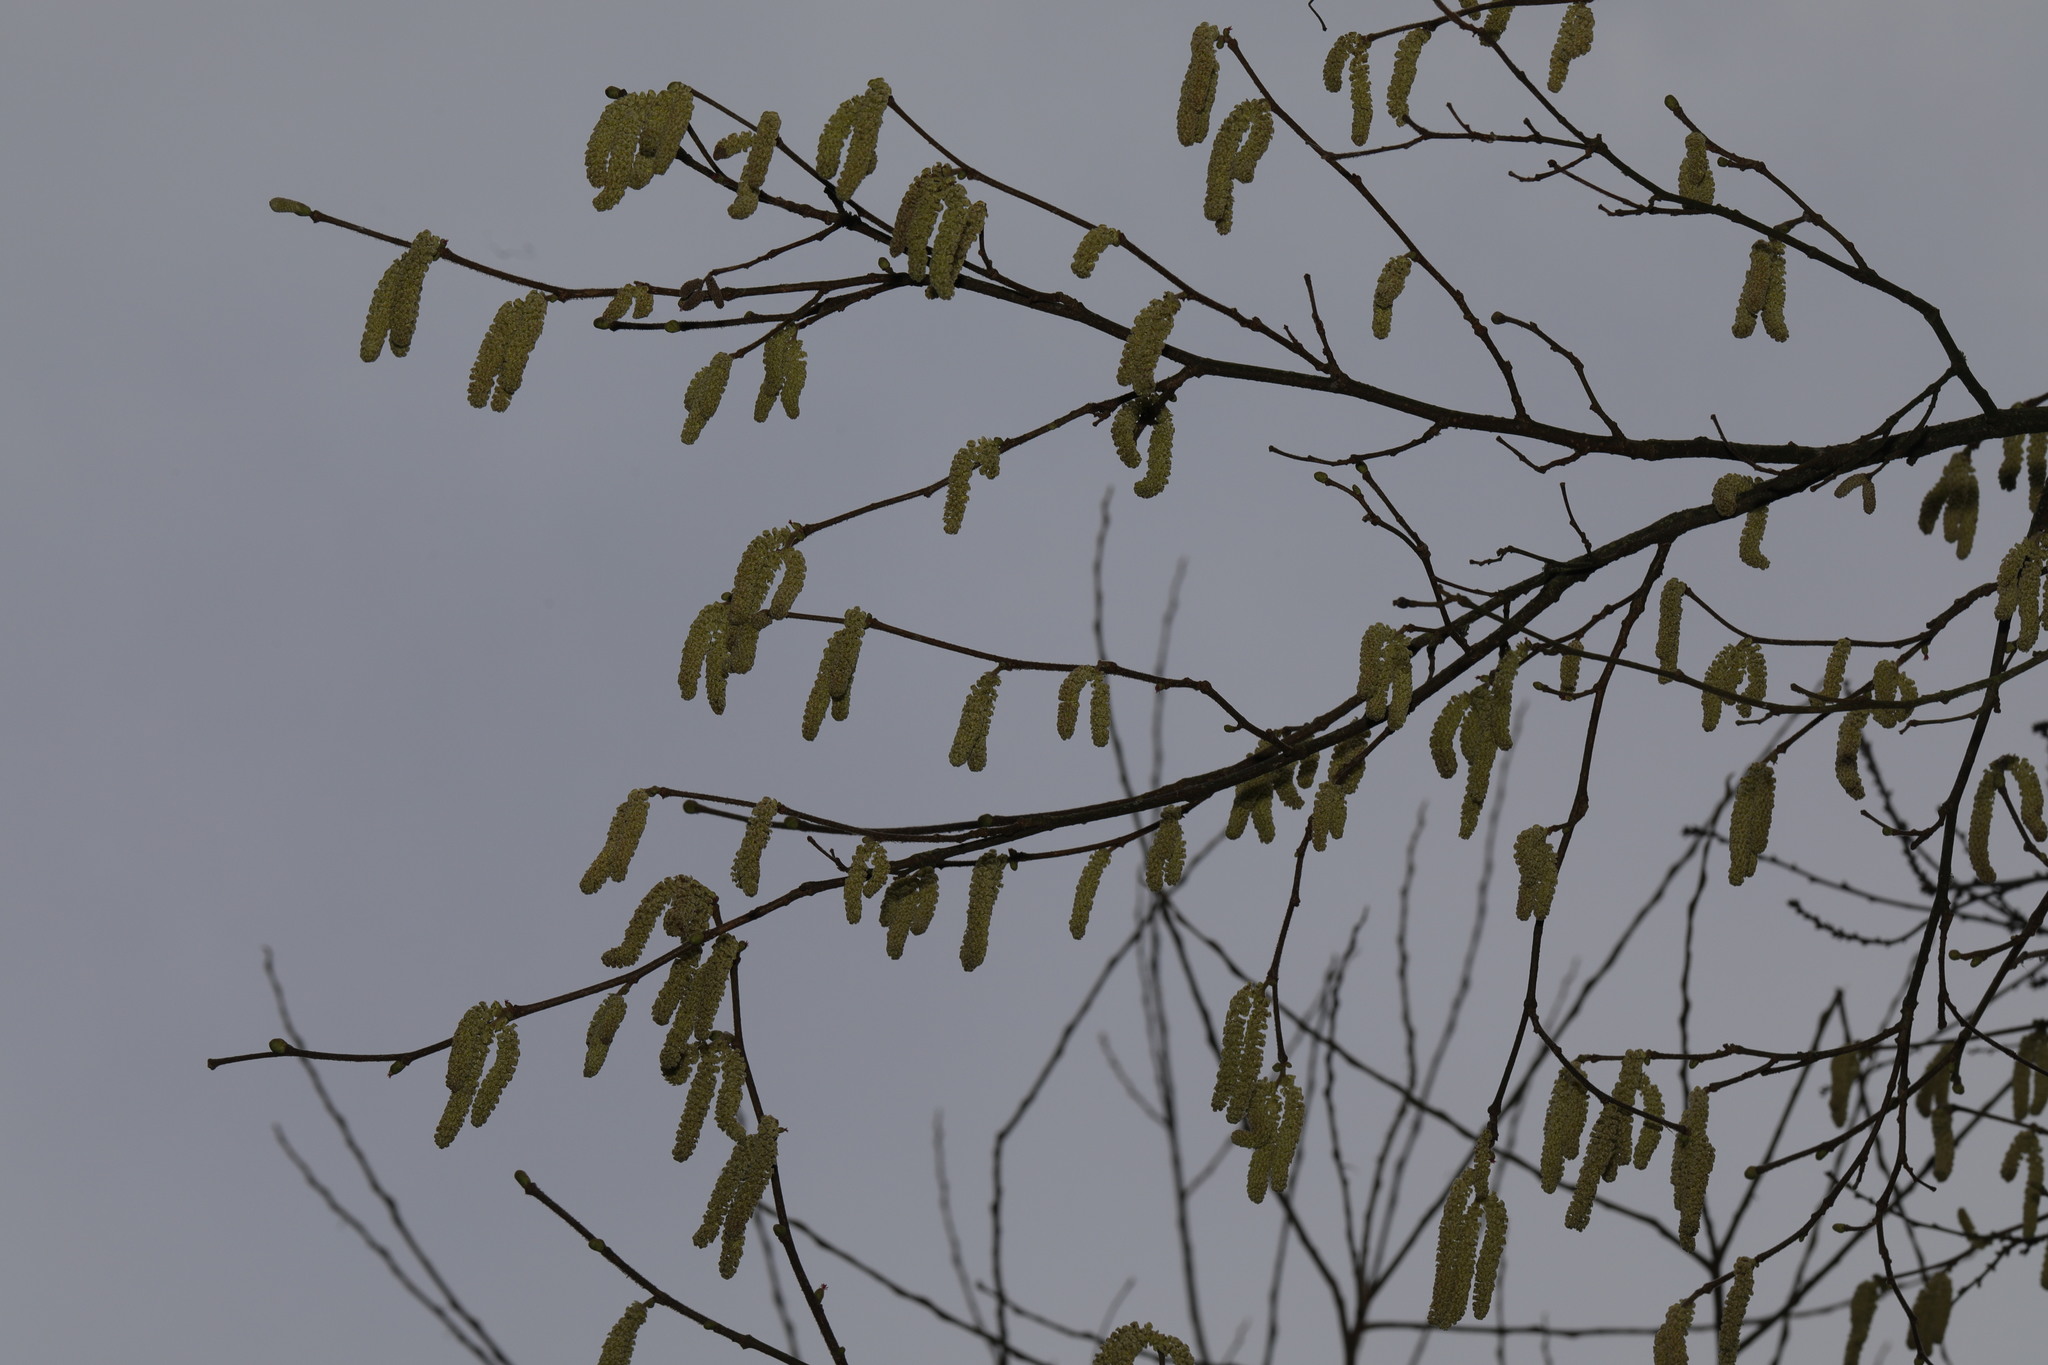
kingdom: Plantae
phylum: Tracheophyta
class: Magnoliopsida
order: Fagales
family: Betulaceae
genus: Corylus
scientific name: Corylus avellana
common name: European hazel
